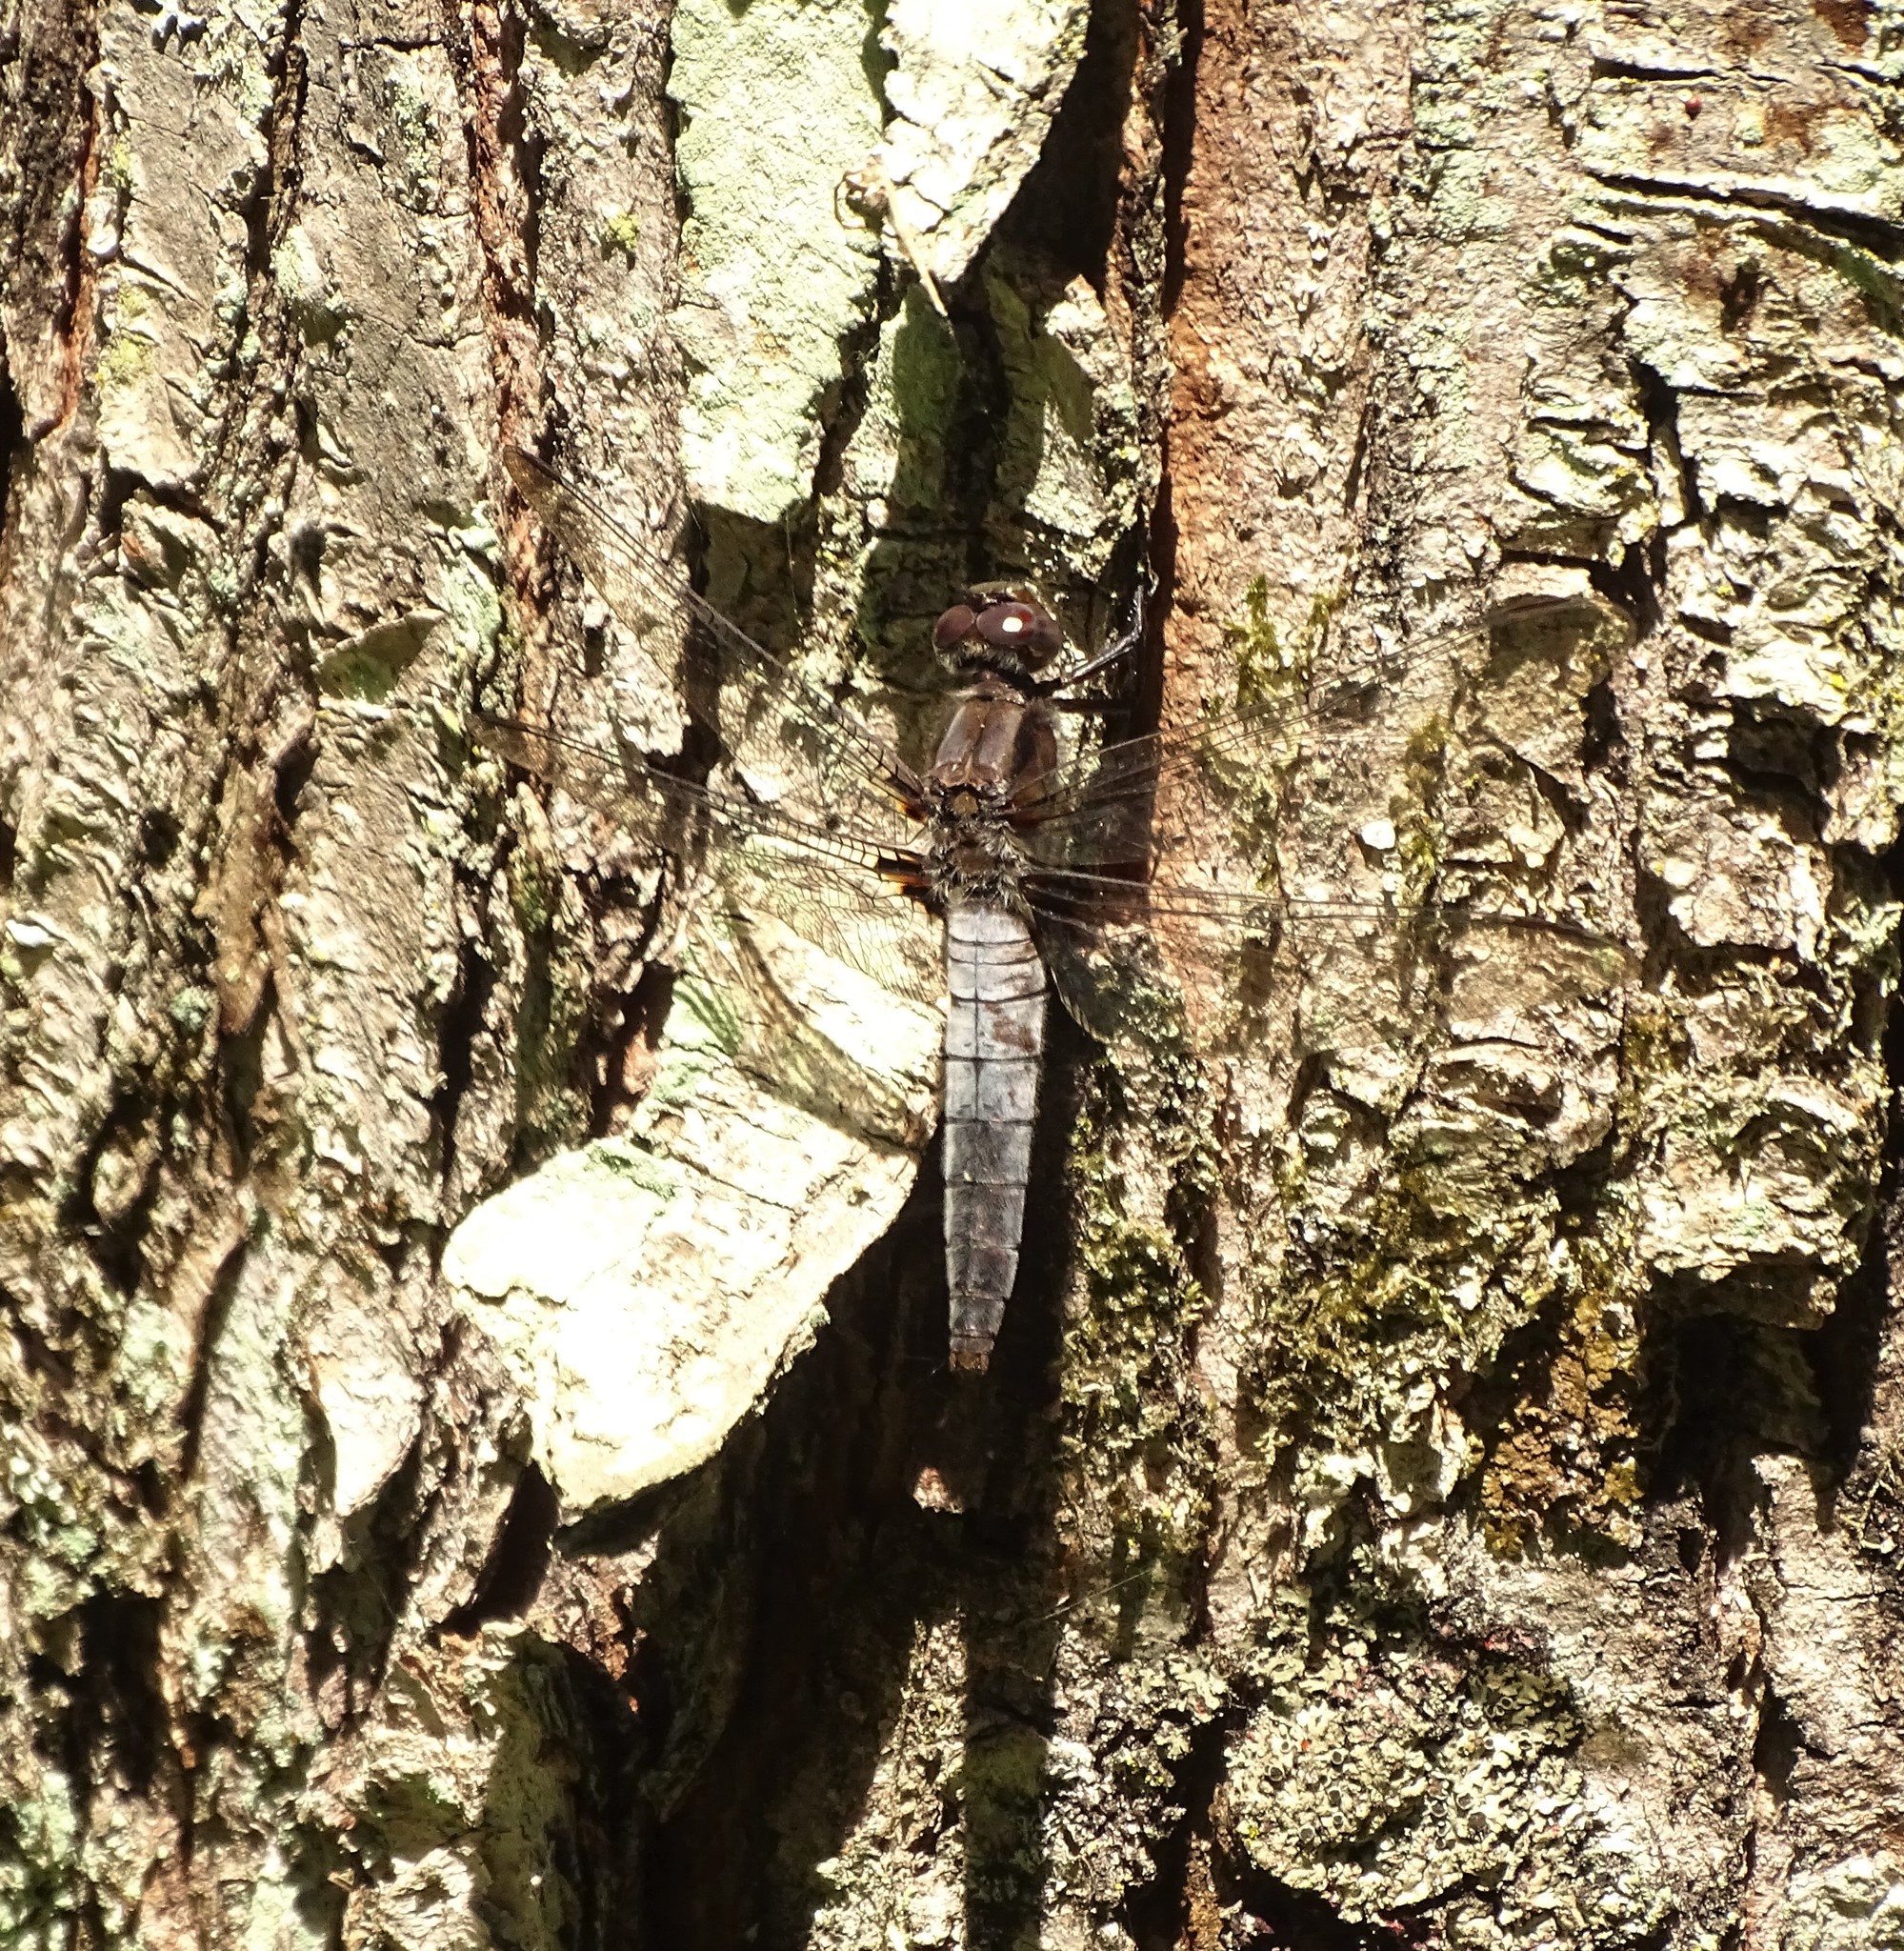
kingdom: Animalia
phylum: Arthropoda
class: Insecta
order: Odonata
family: Libellulidae
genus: Ladona
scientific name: Ladona julia
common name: Chalk-fronted corporal
